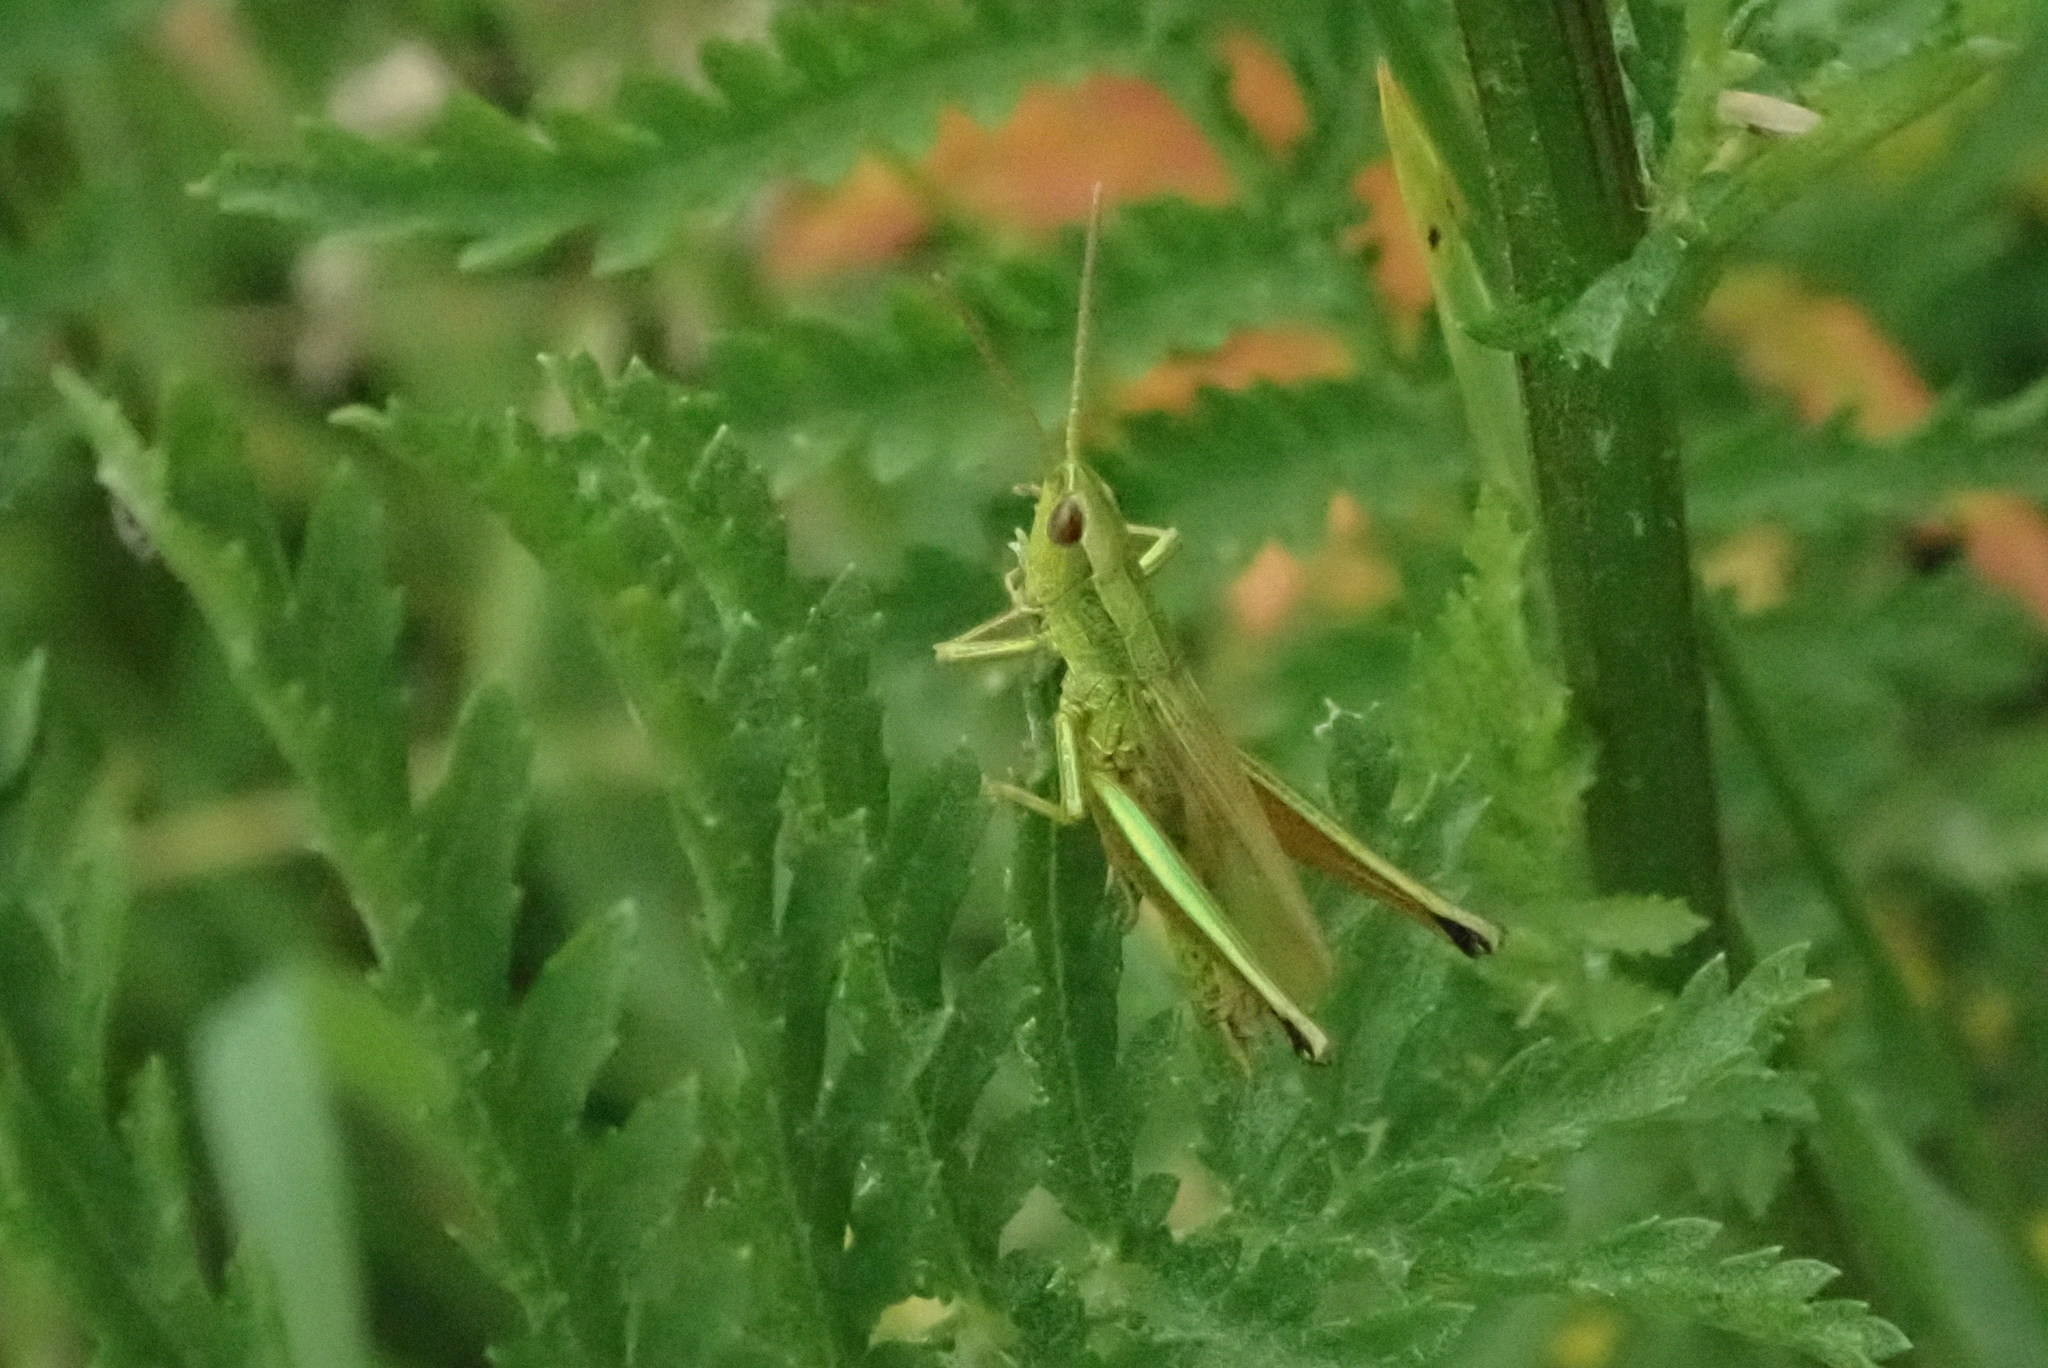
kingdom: Animalia
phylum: Arthropoda
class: Insecta
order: Orthoptera
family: Acrididae
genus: Chrysochraon
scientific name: Chrysochraon dispar
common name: Large gold grasshopper
